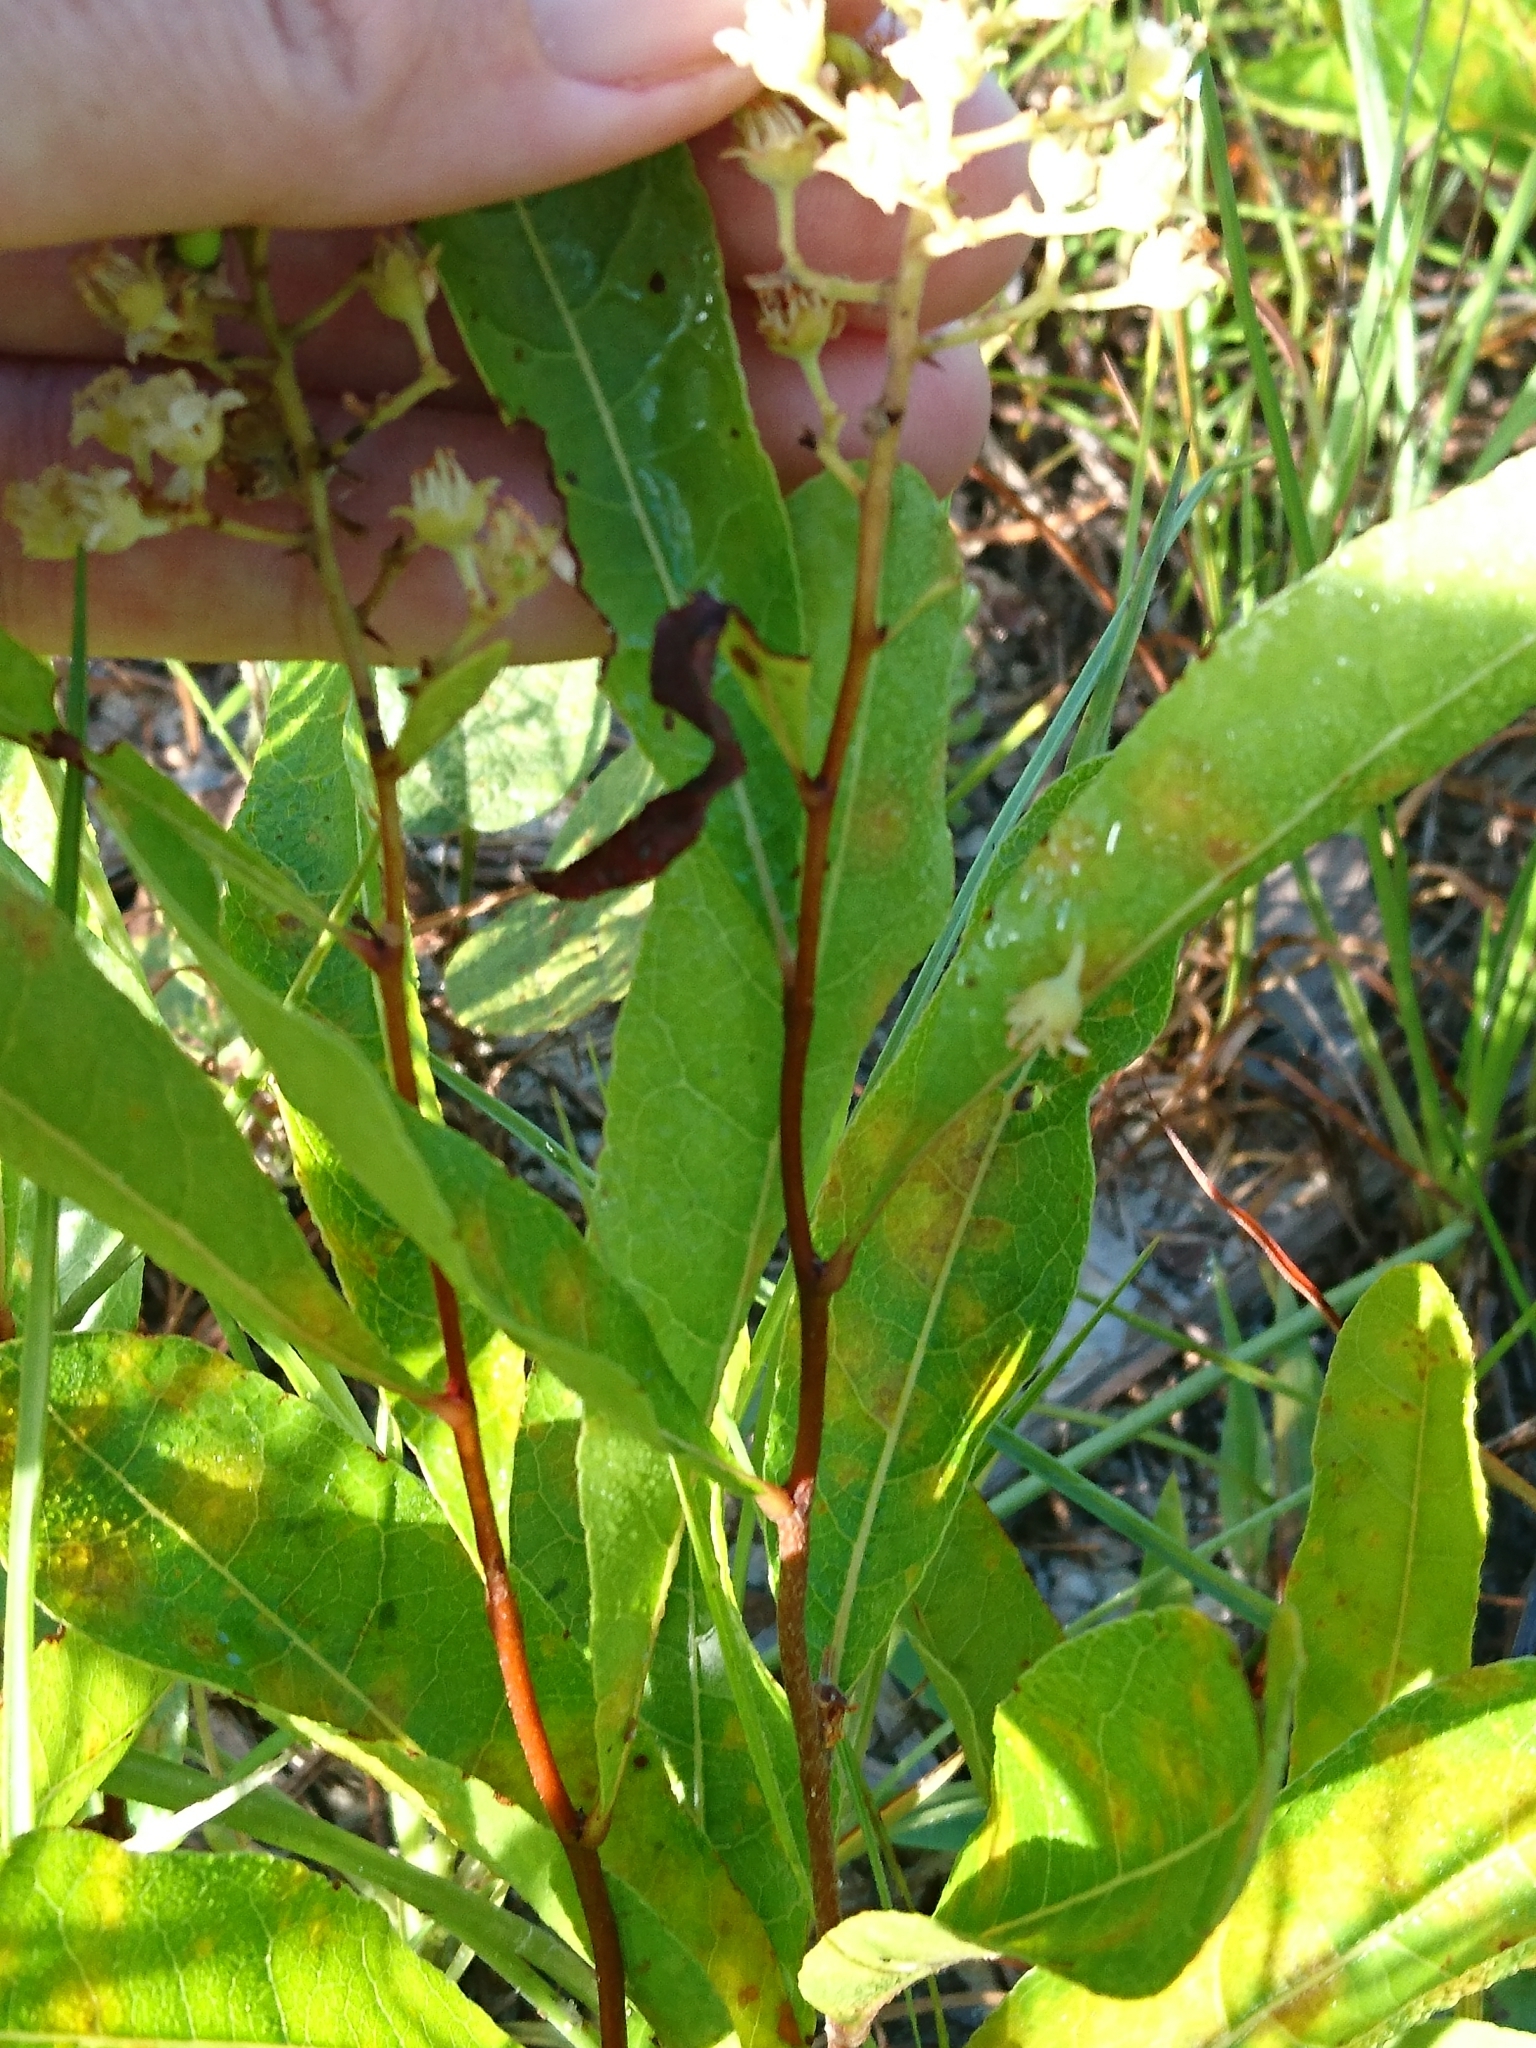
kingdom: Plantae
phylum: Tracheophyta
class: Magnoliopsida
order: Malpighiales
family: Chrysobalanaceae
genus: Geobalanus
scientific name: Geobalanus oblongifolius
